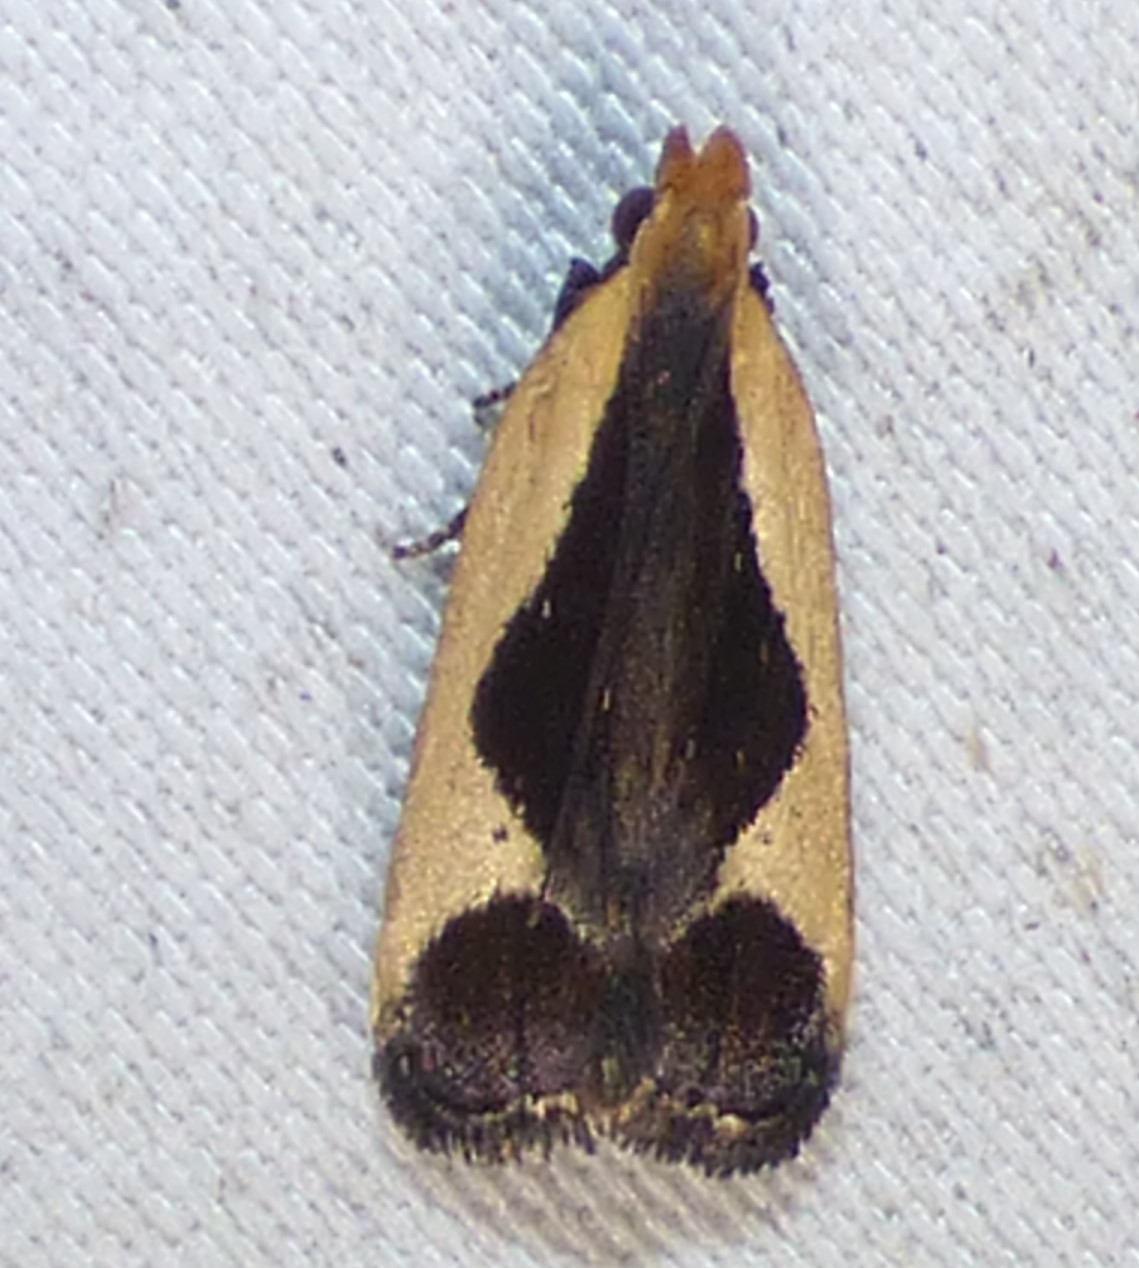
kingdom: Animalia
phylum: Arthropoda
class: Insecta
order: Lepidoptera
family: Gelechiidae
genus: Dichomeris
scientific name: Dichomeris flavocostella
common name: Cream-edged dichomeris moth
